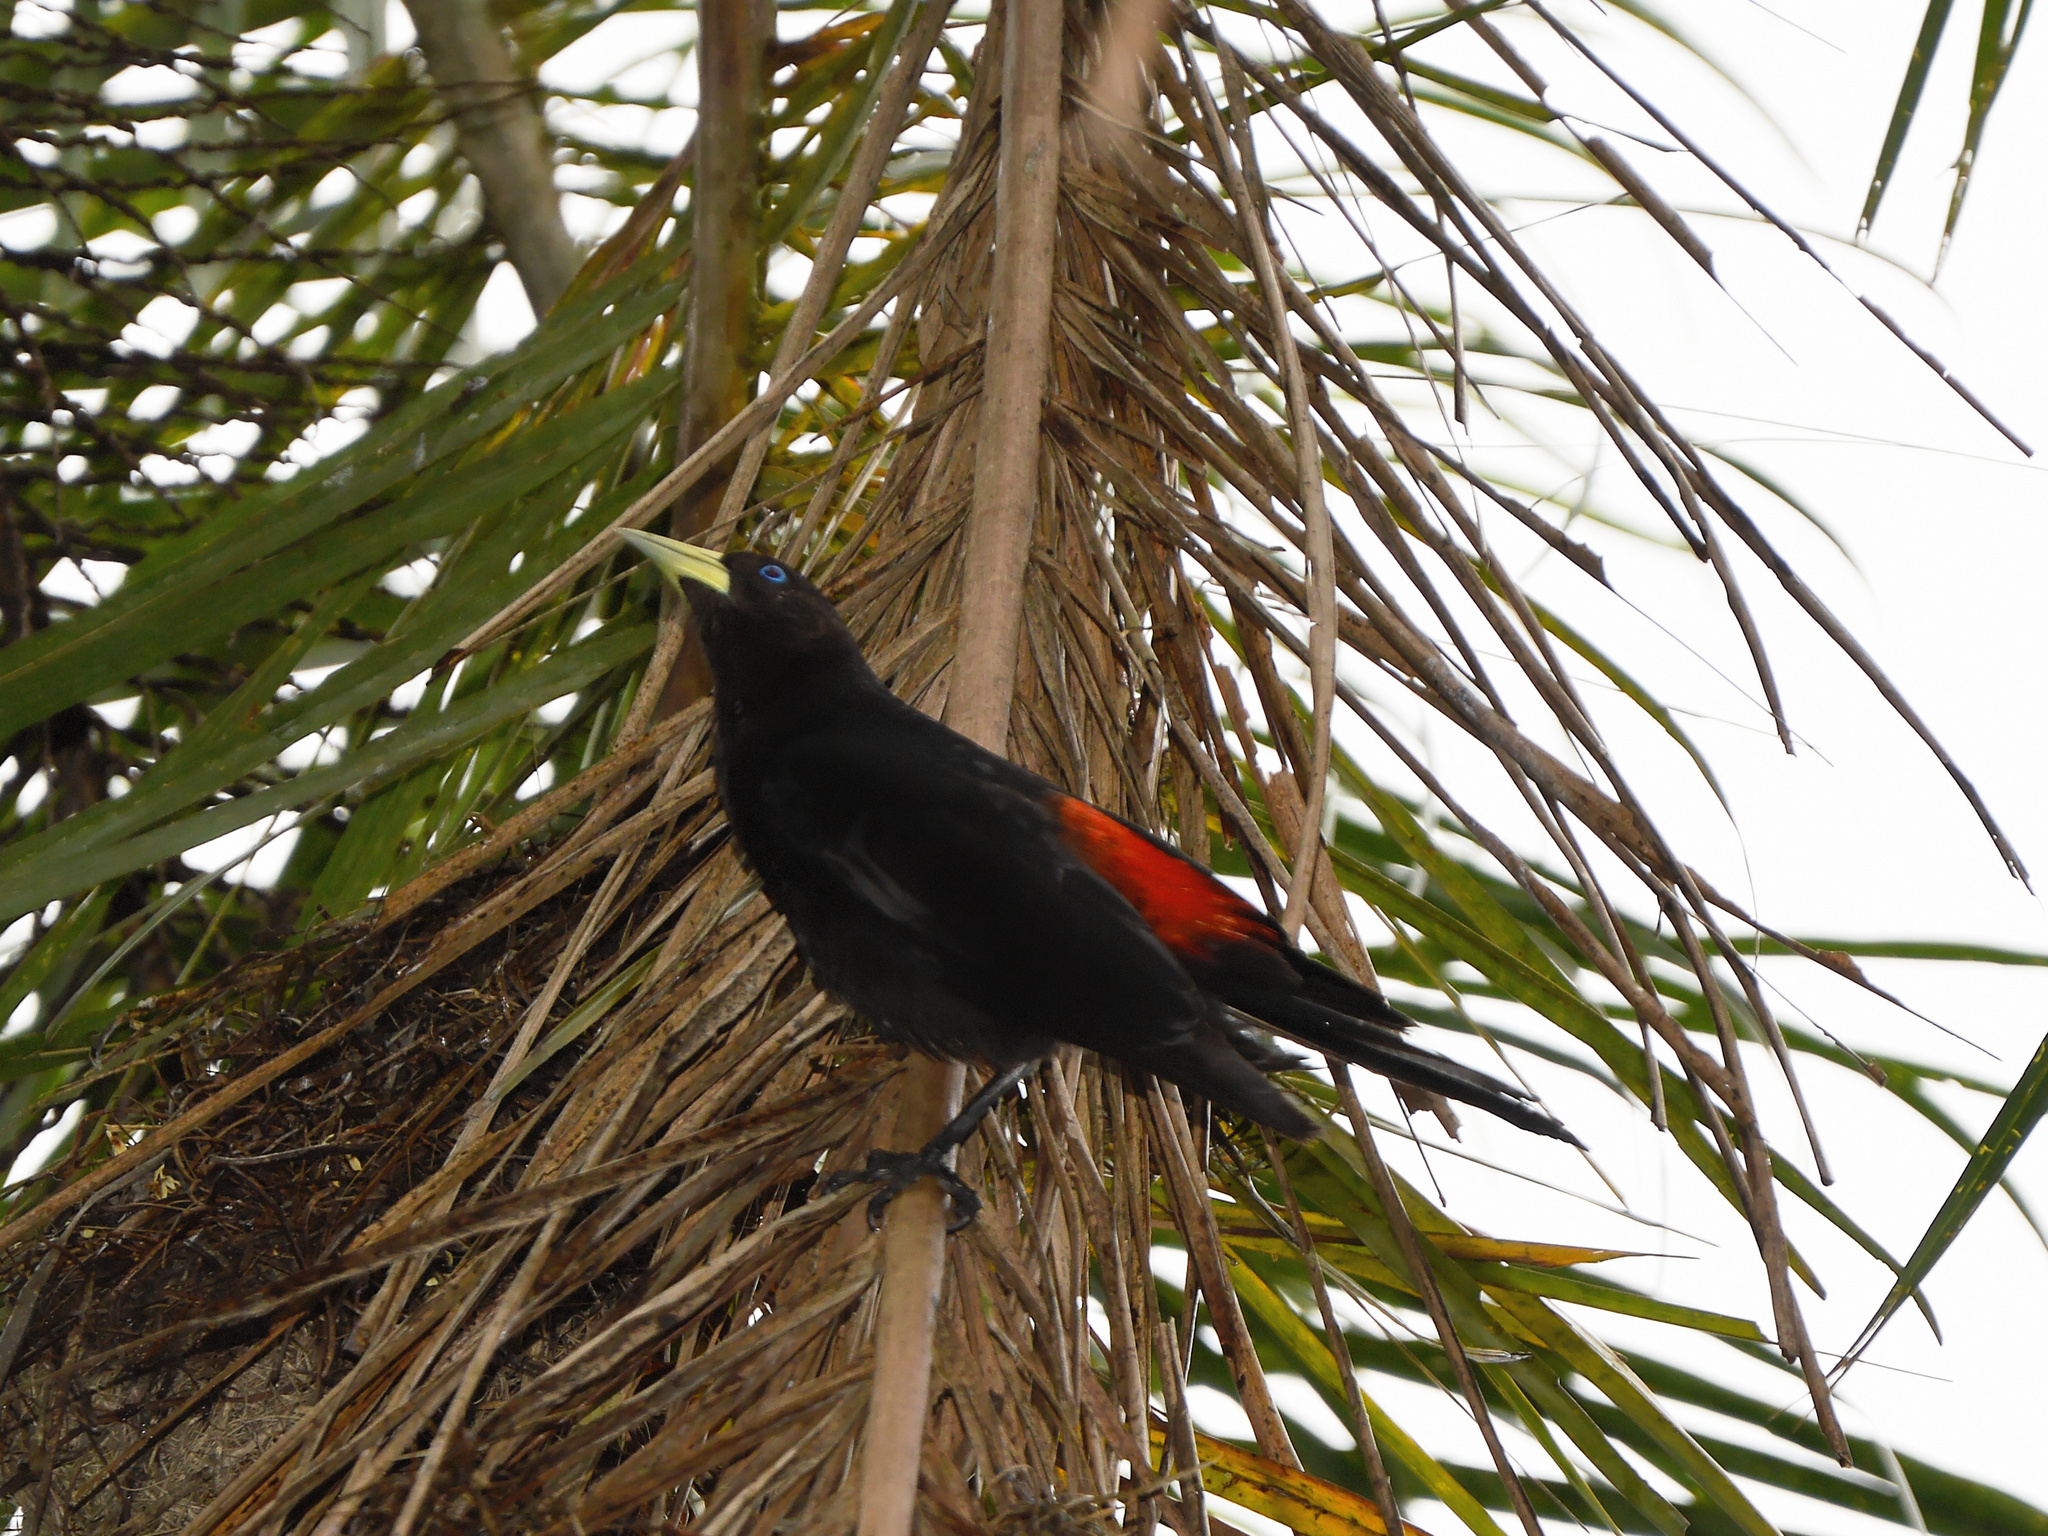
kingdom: Animalia
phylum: Chordata
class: Aves
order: Passeriformes
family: Icteridae
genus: Cacicus
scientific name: Cacicus haemorrhous
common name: Red-rumped cacique
